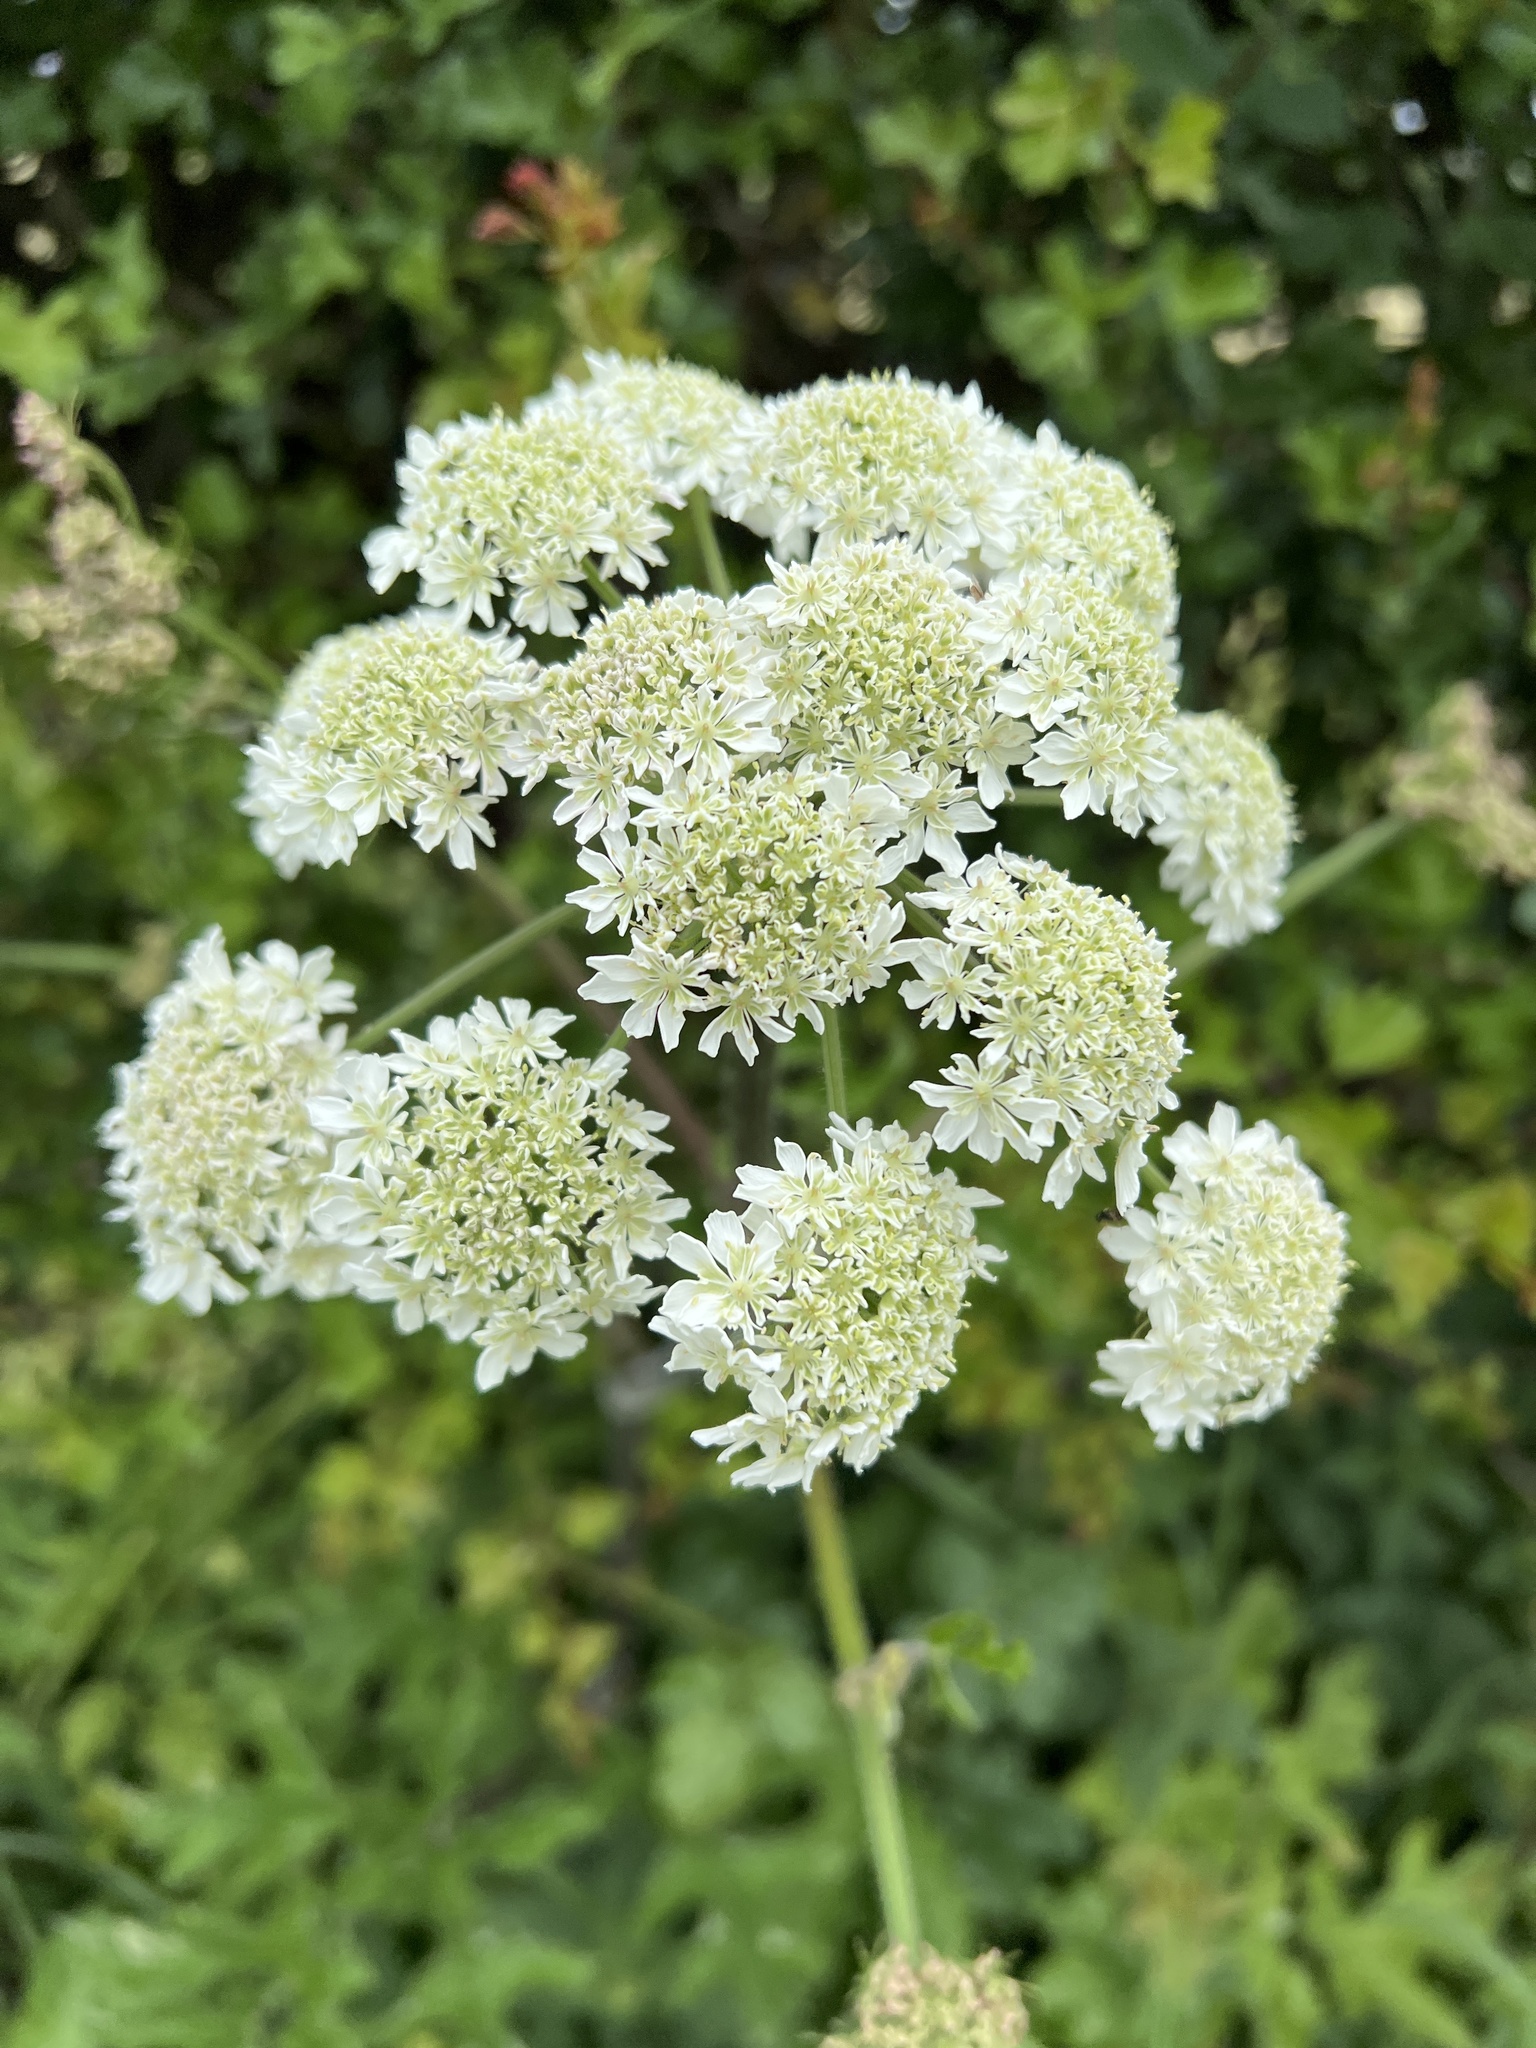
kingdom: Plantae
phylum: Tracheophyta
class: Magnoliopsida
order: Apiales
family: Apiaceae
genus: Heracleum
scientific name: Heracleum sphondylium
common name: Hogweed
